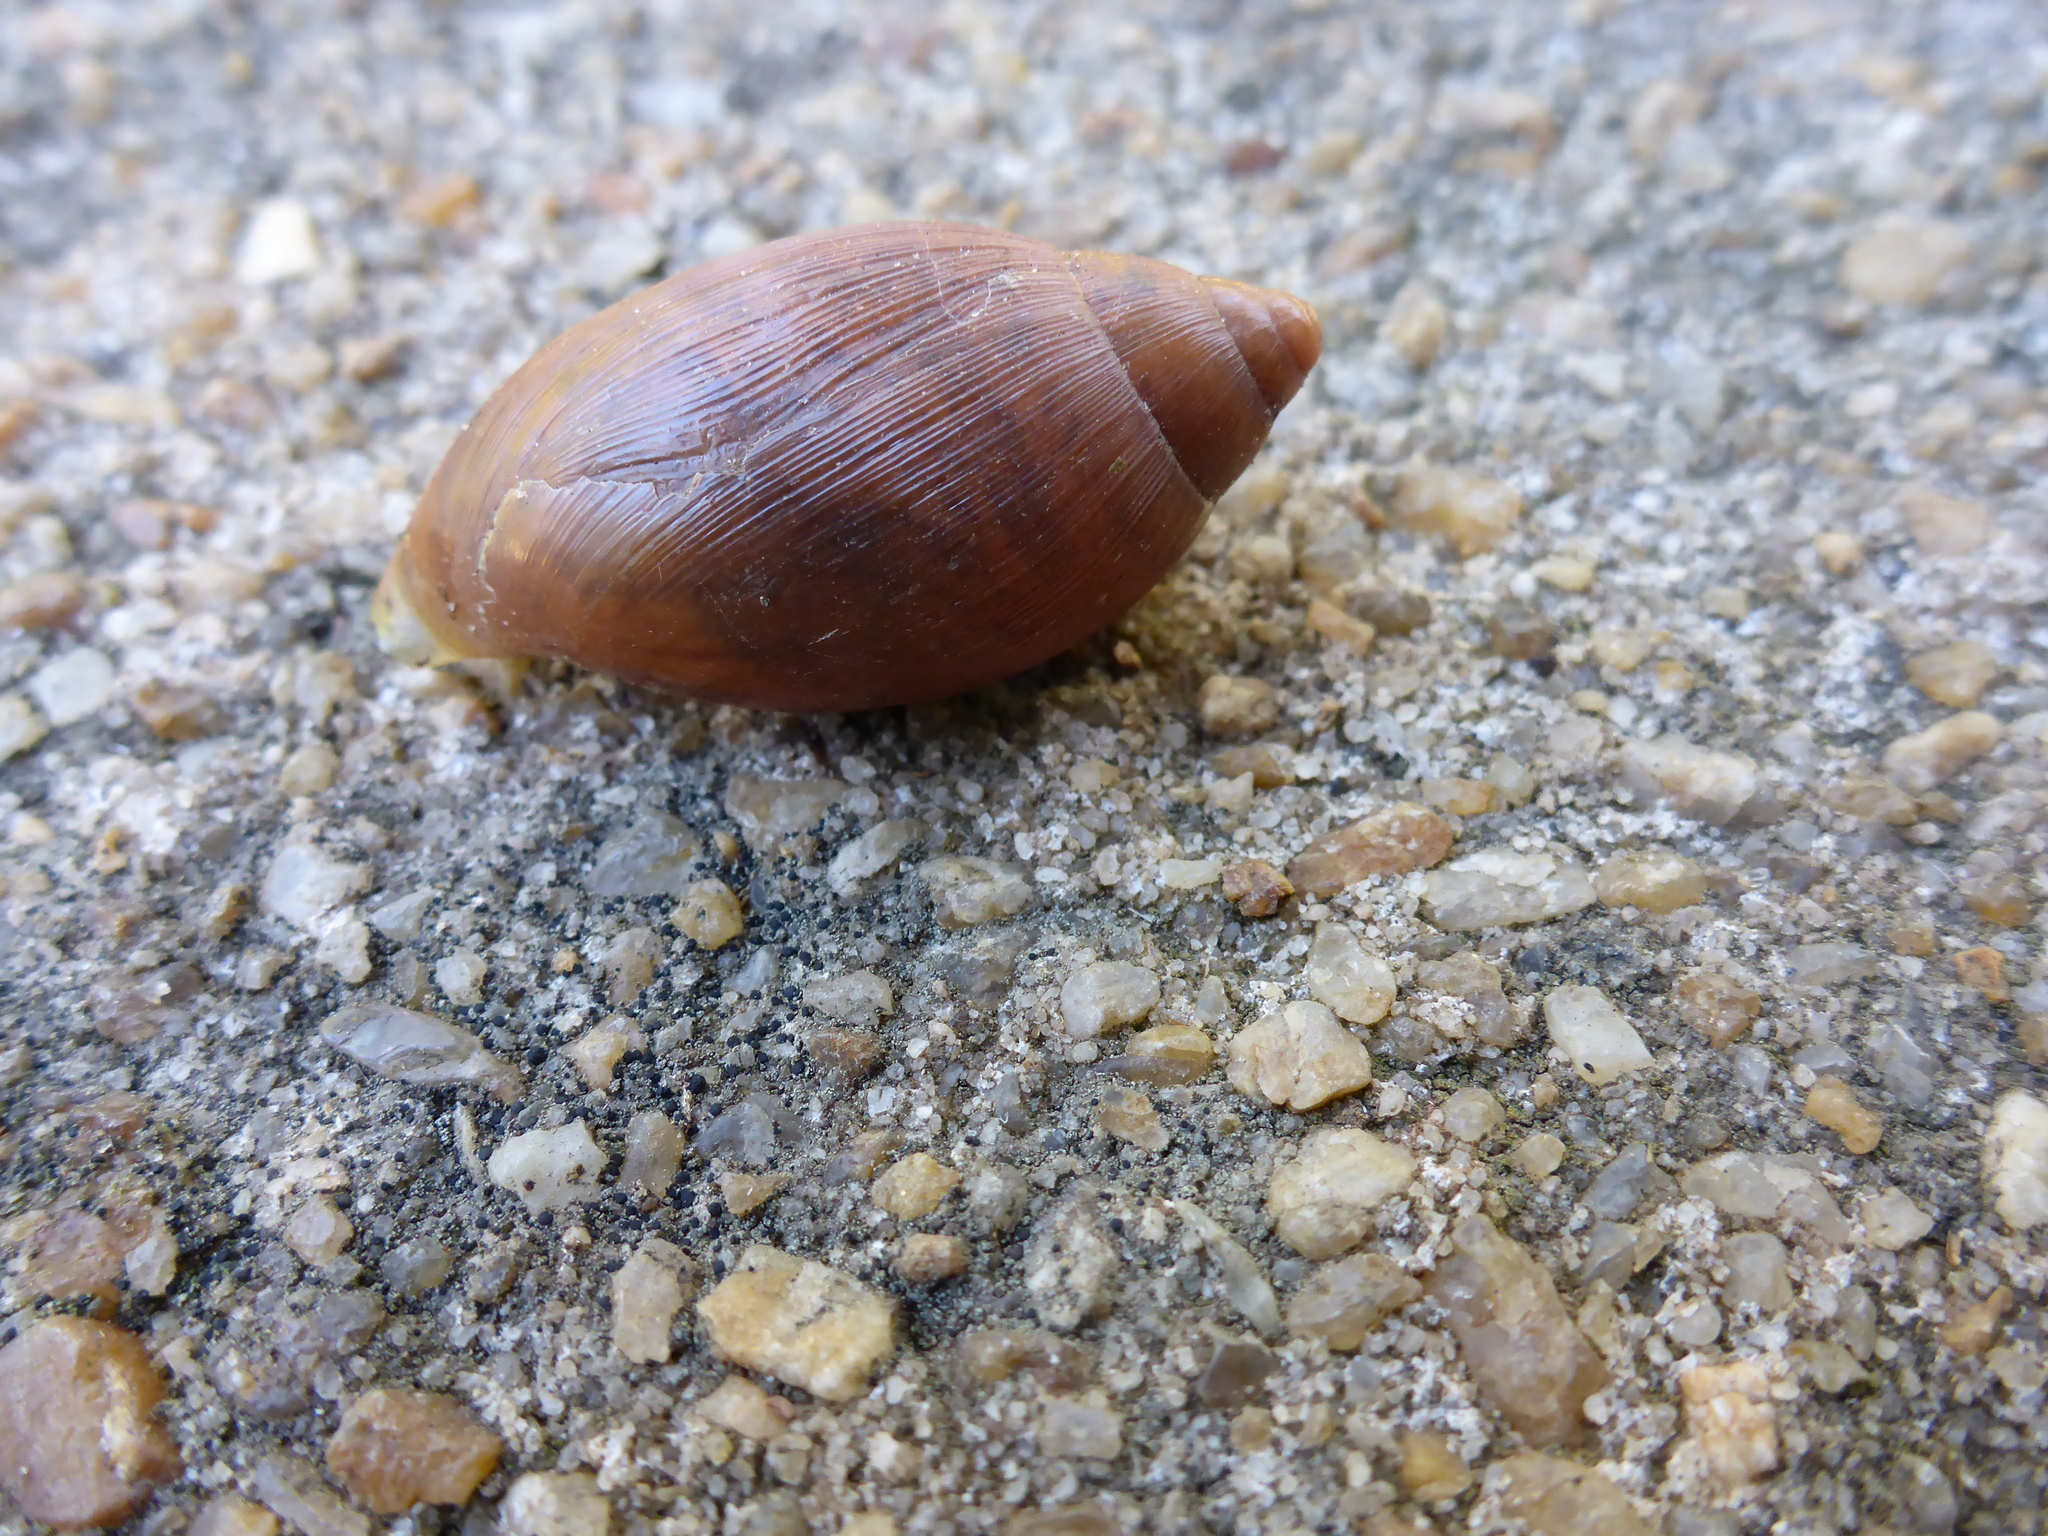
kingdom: Animalia
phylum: Mollusca
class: Gastropoda
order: Stylommatophora
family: Spiraxidae
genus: Euglandina
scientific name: Euglandina rosea
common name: Rosy wolfsnail
